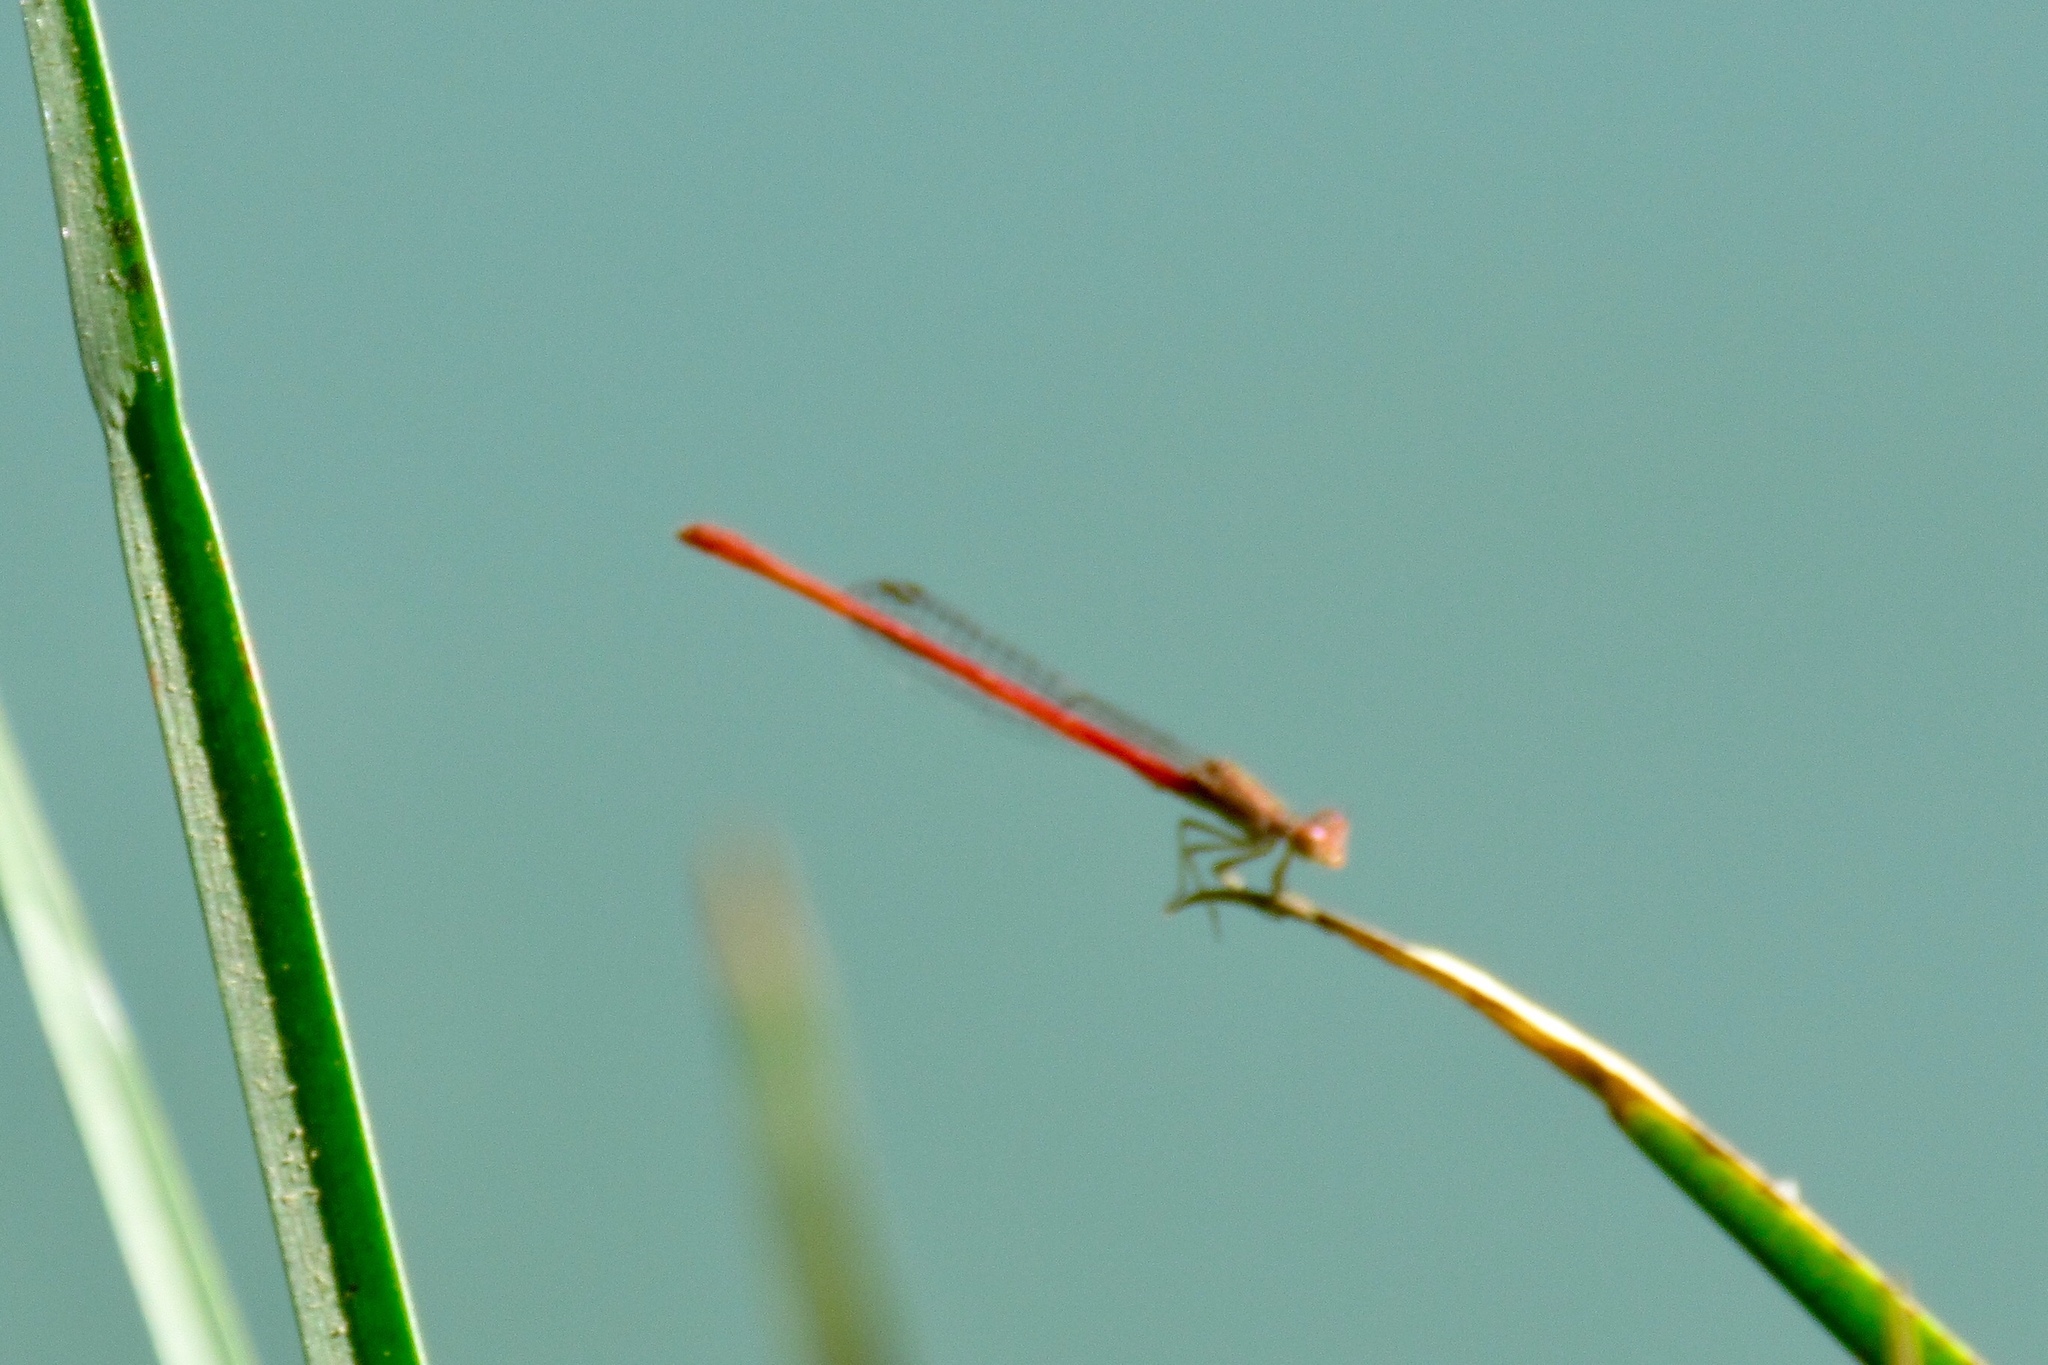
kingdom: Animalia
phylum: Arthropoda
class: Insecta
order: Odonata
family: Coenagrionidae
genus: Telebasis
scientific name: Telebasis salva
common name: Desert firetail
